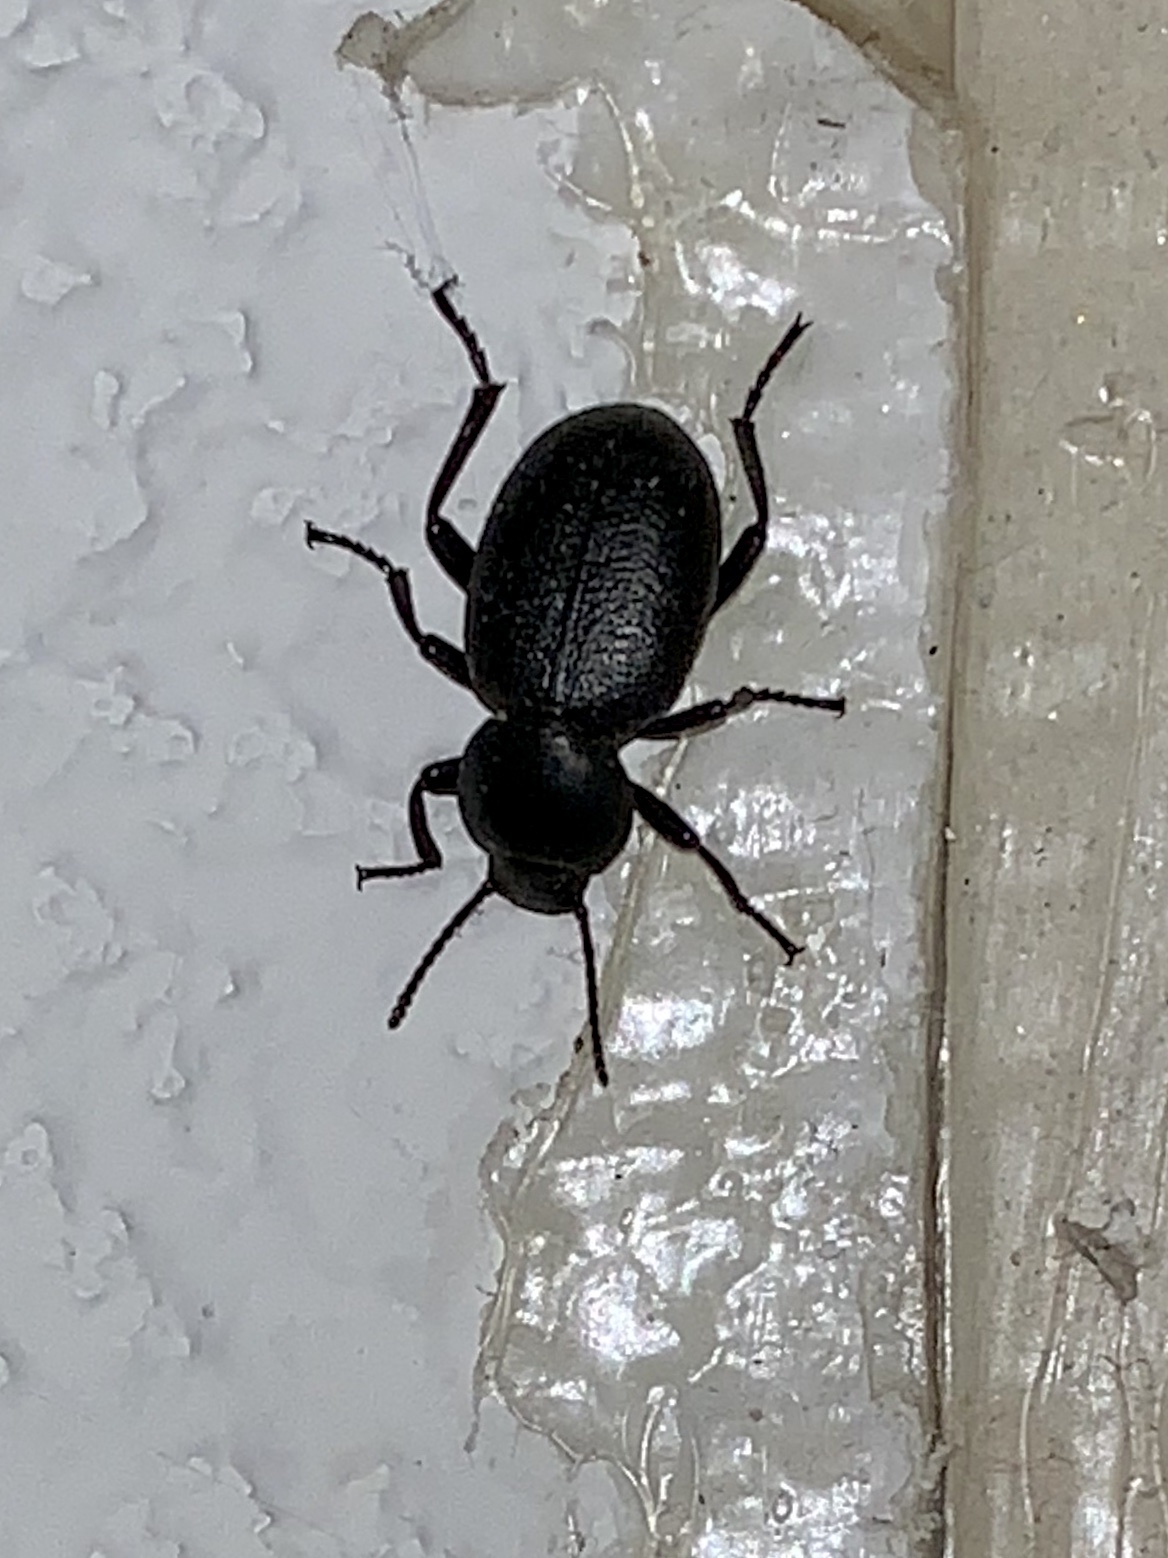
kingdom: Animalia
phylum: Arthropoda
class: Insecta
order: Coleoptera
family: Tenebrionidae
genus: Eleodes
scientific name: Eleodes snowii
